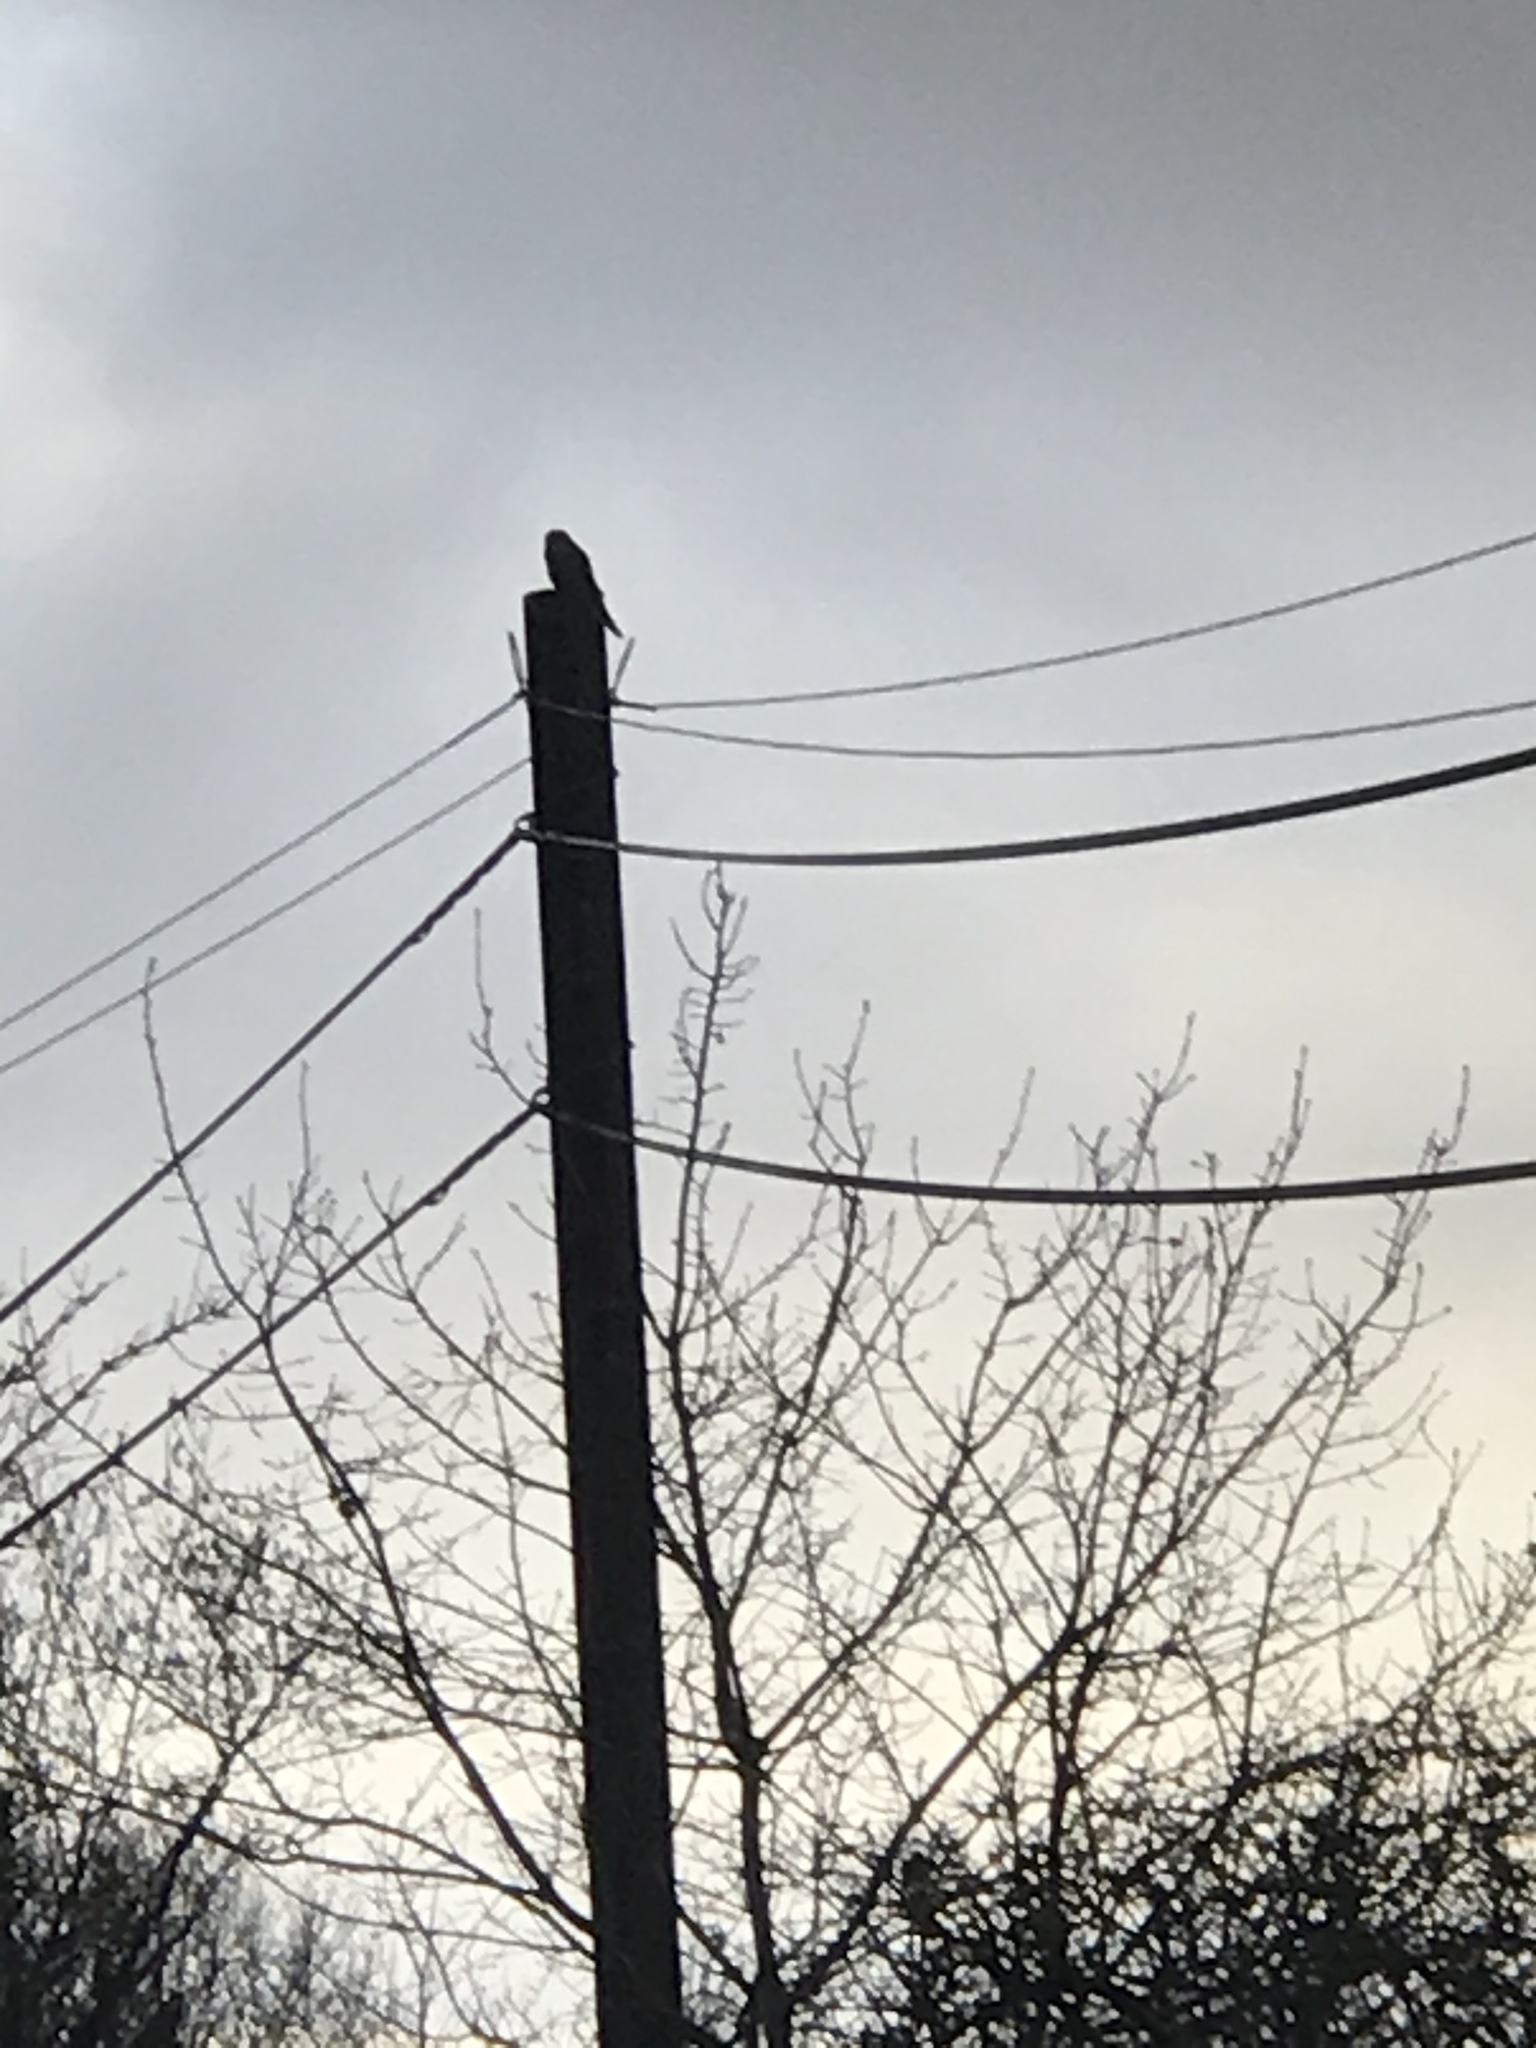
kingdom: Animalia
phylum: Chordata
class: Aves
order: Falconiformes
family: Falconidae
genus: Falco
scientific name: Falco tinnunculus
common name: Common kestrel
